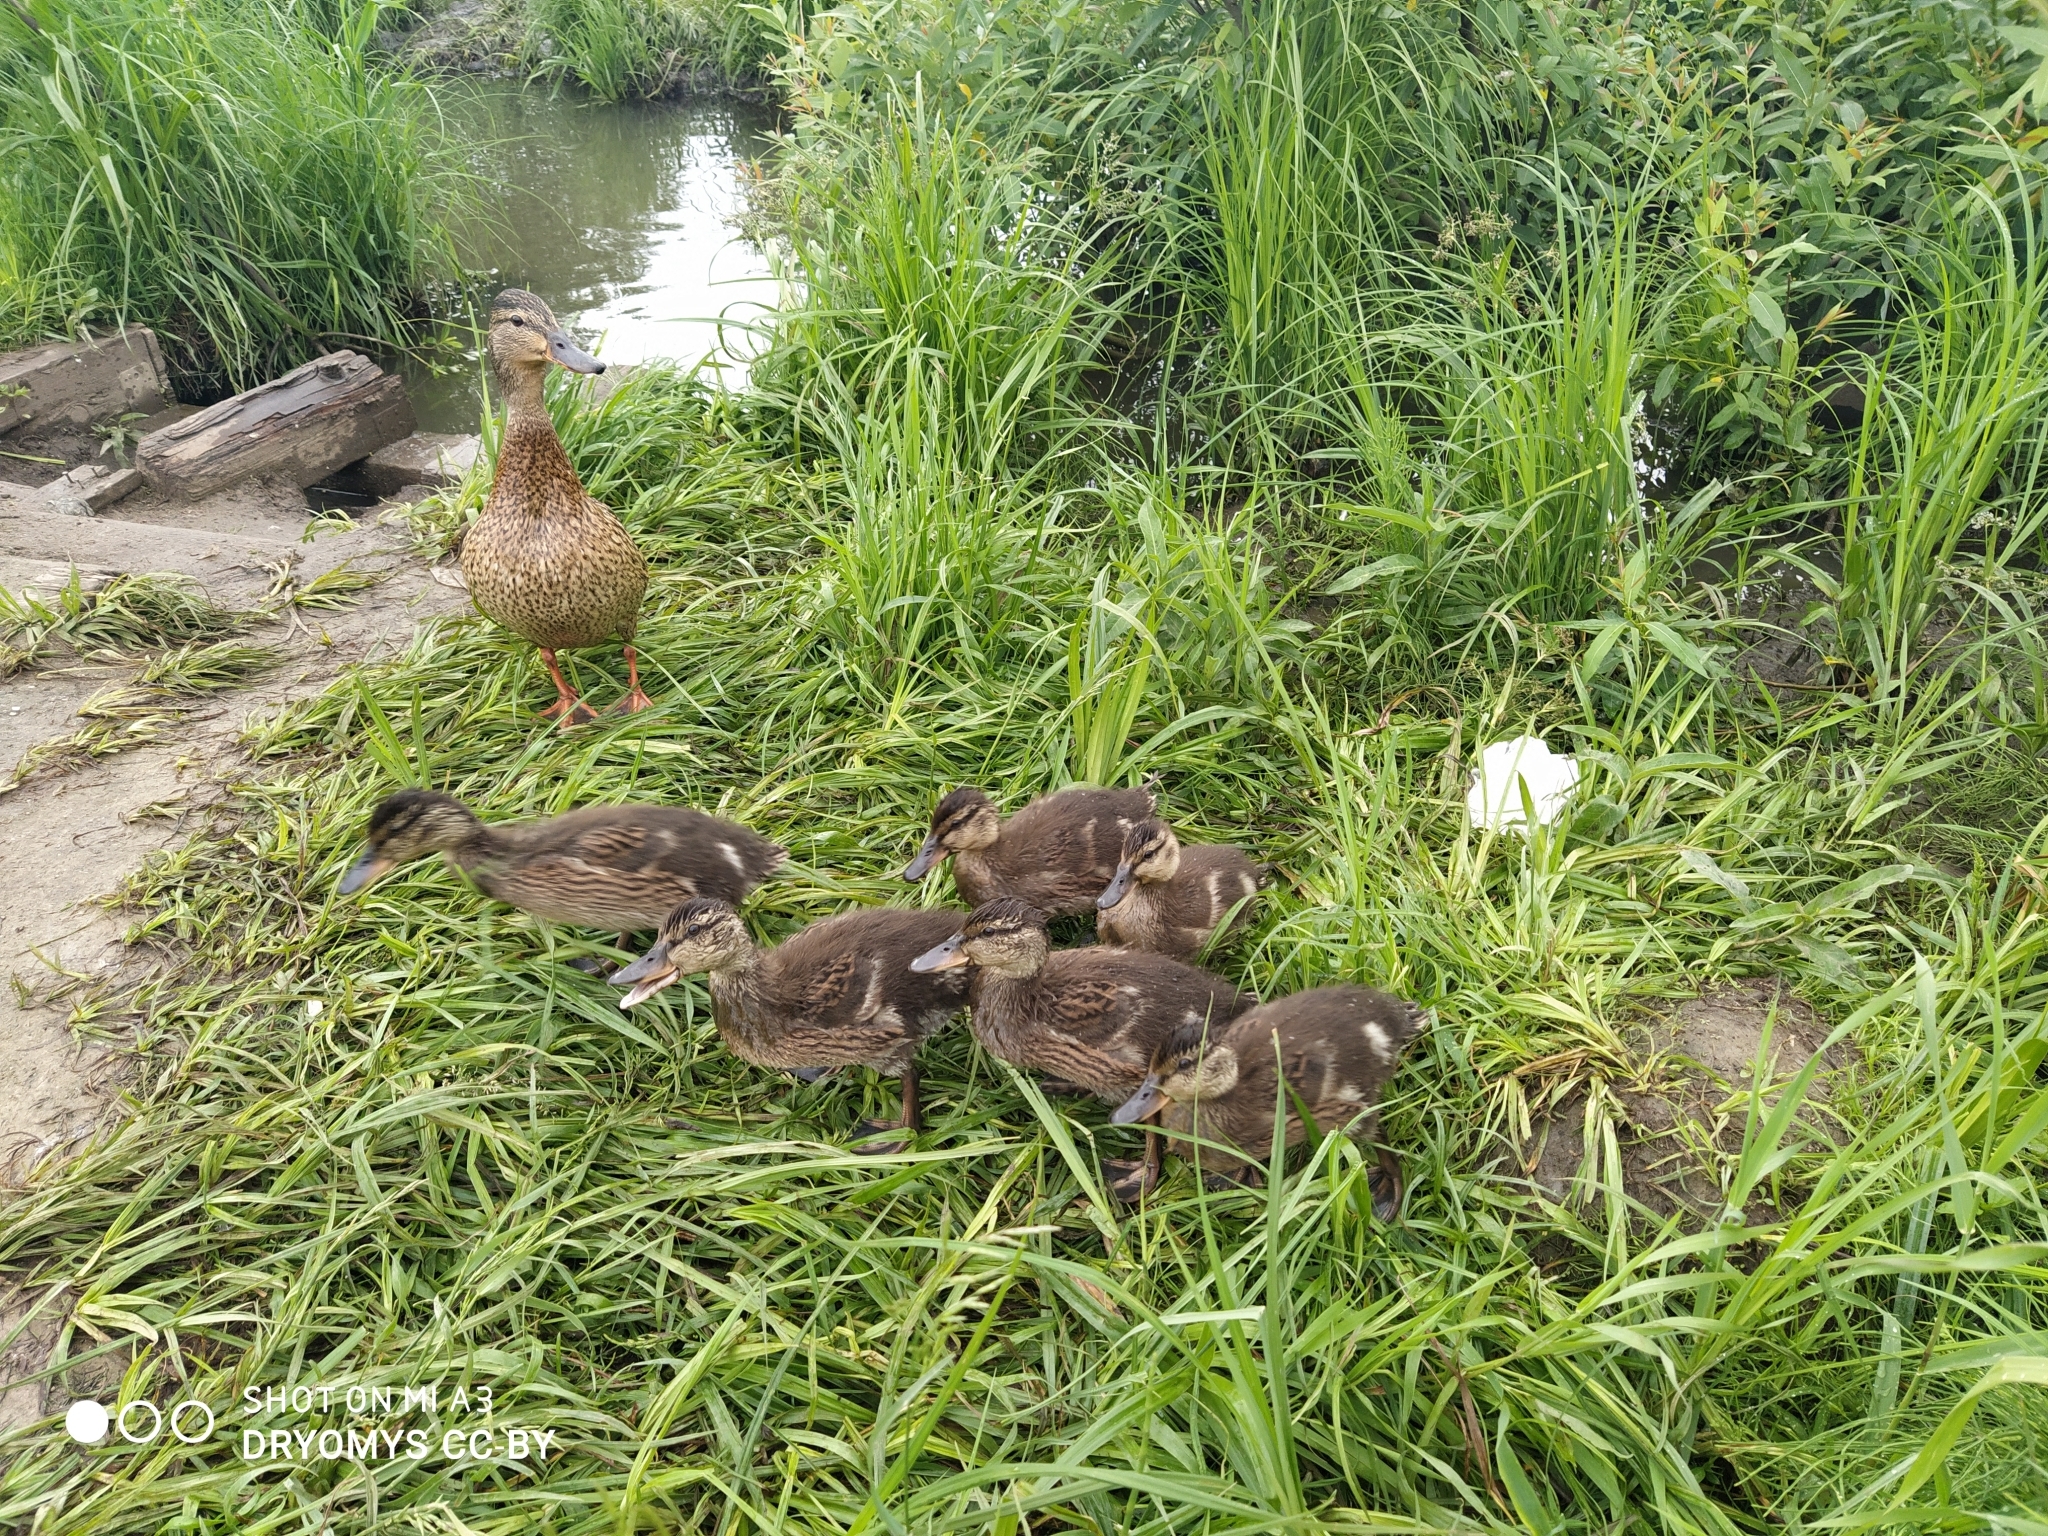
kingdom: Animalia
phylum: Chordata
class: Aves
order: Anseriformes
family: Anatidae
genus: Anas
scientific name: Anas platyrhynchos
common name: Mallard
